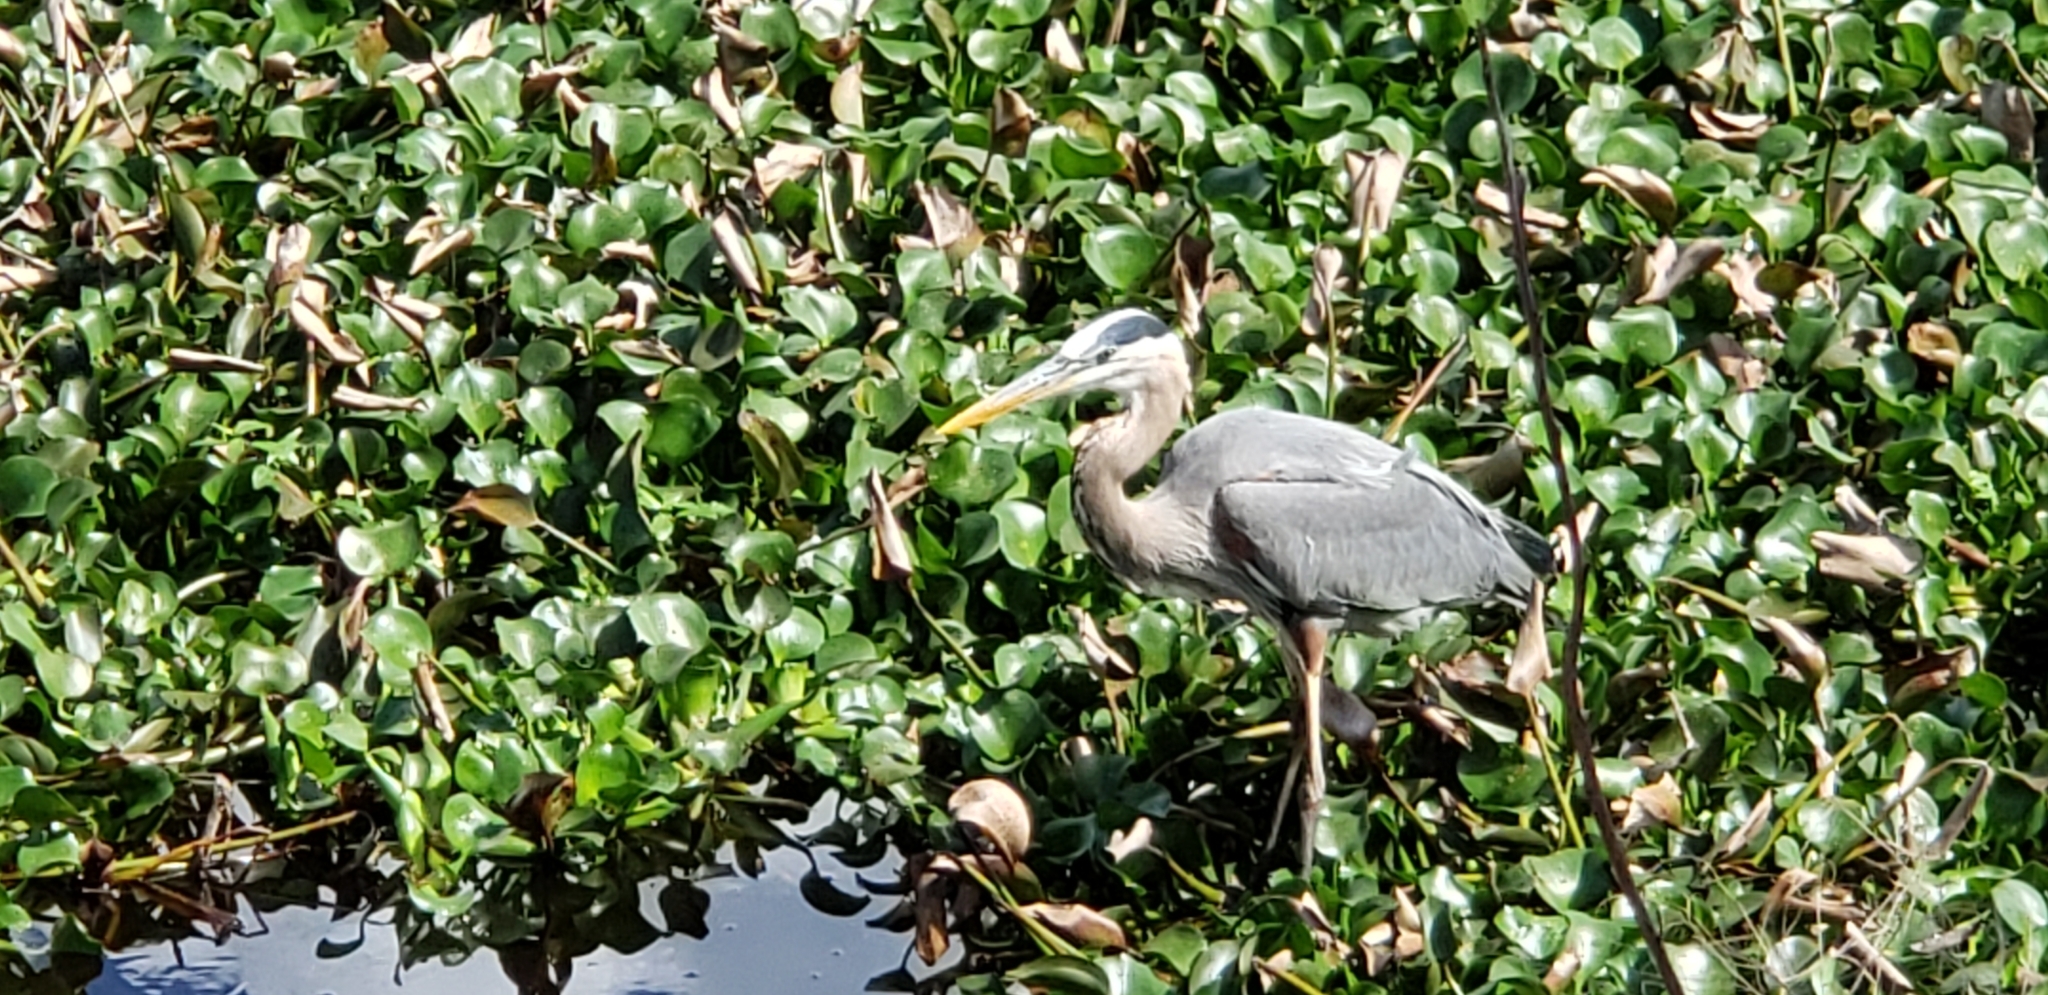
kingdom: Animalia
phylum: Chordata
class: Aves
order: Pelecaniformes
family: Ardeidae
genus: Ardea
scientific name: Ardea herodias
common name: Great blue heron
